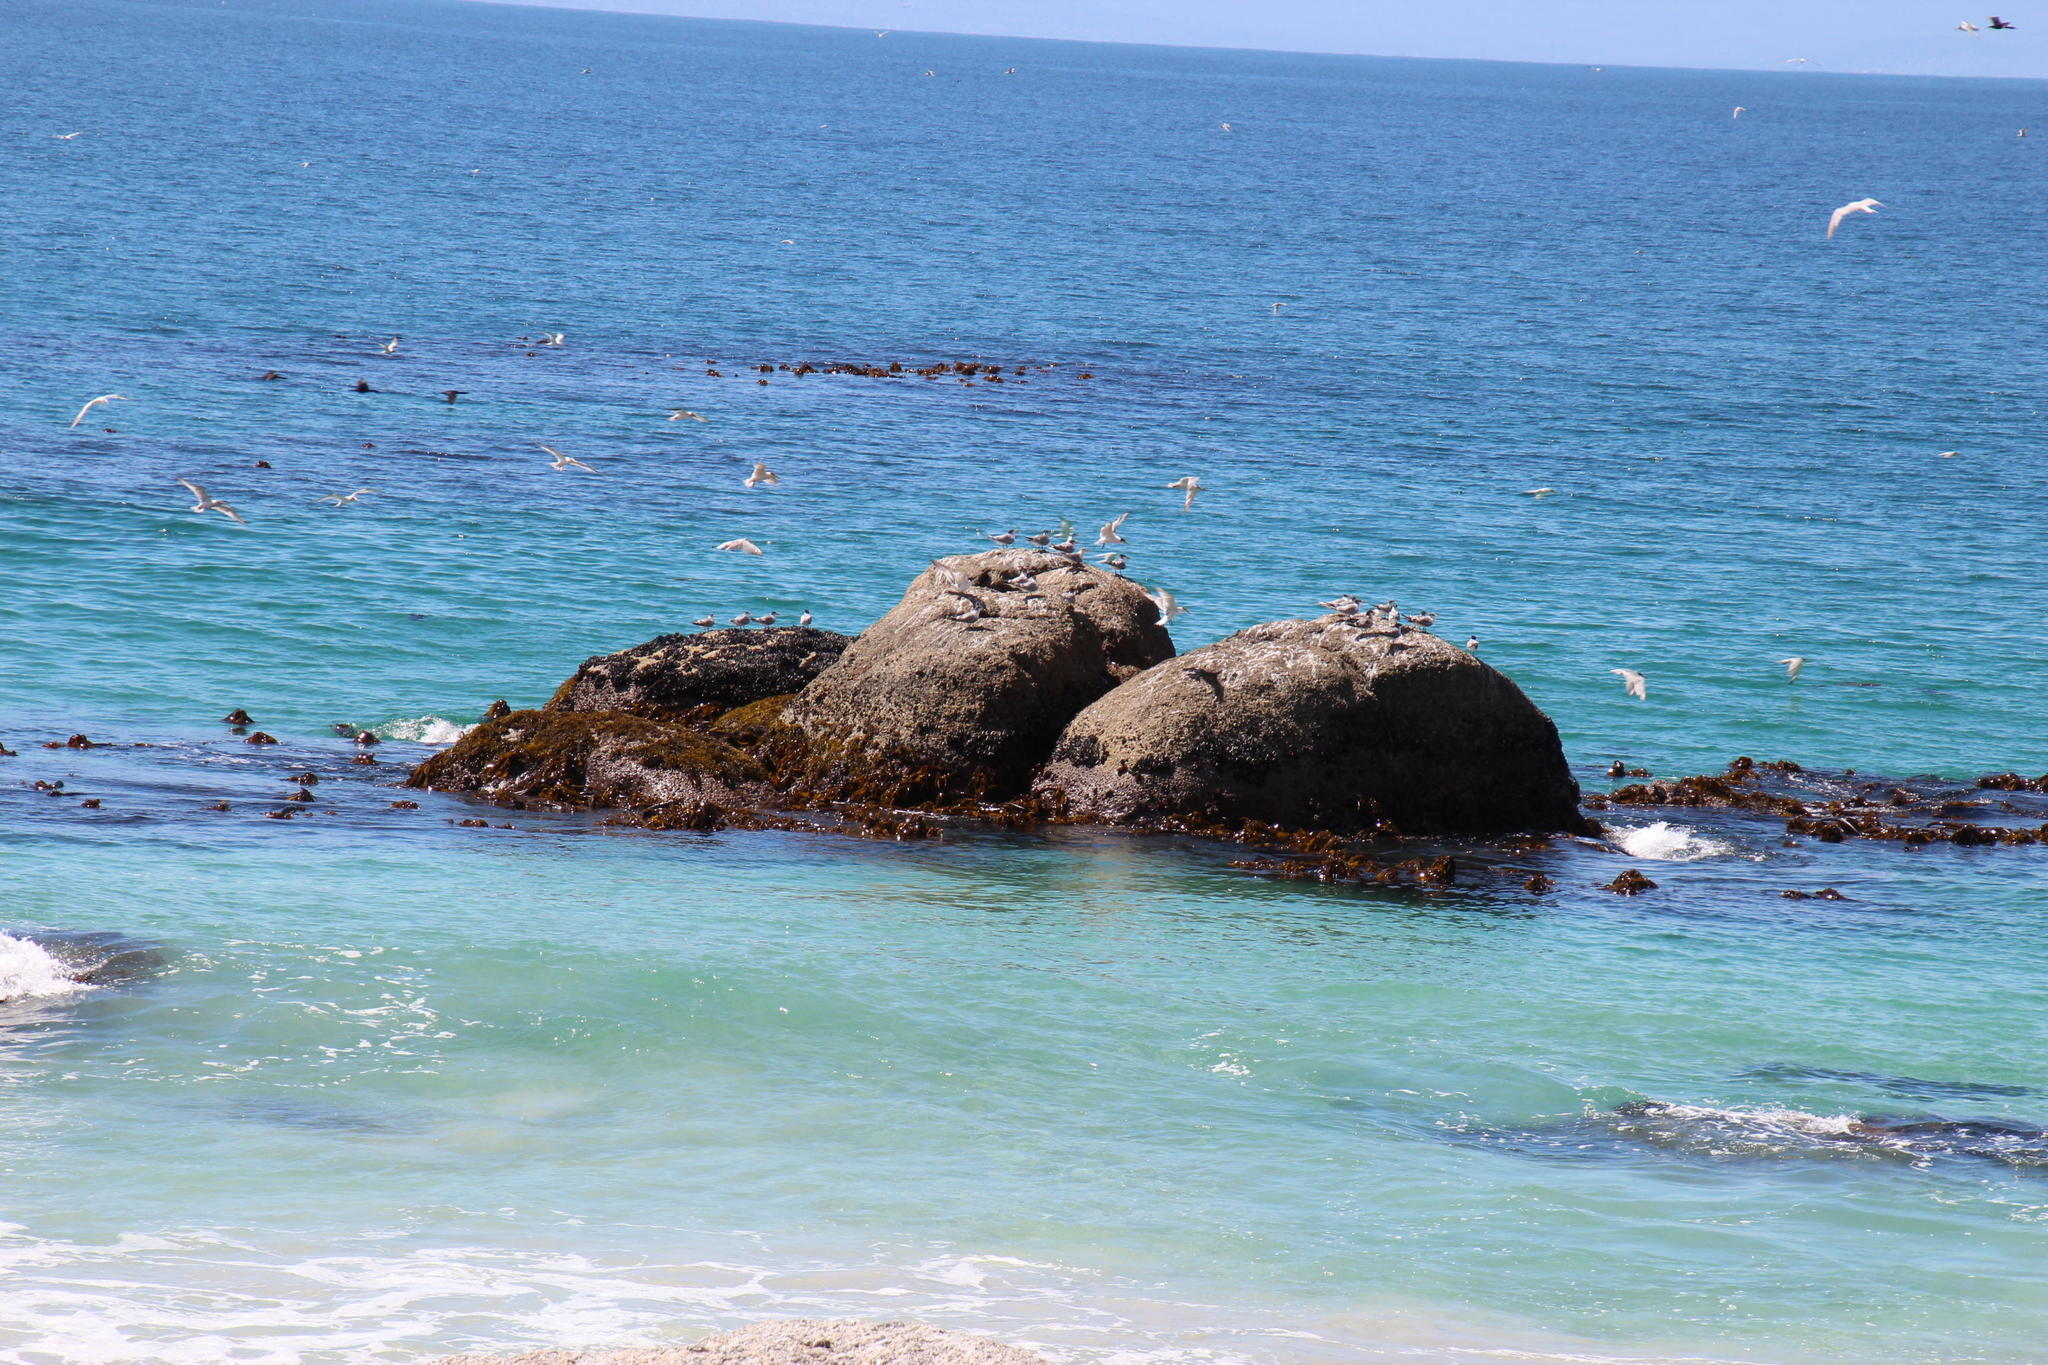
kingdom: Animalia
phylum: Chordata
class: Aves
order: Charadriiformes
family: Laridae
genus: Thalasseus
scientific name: Thalasseus bergii
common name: Greater crested tern
